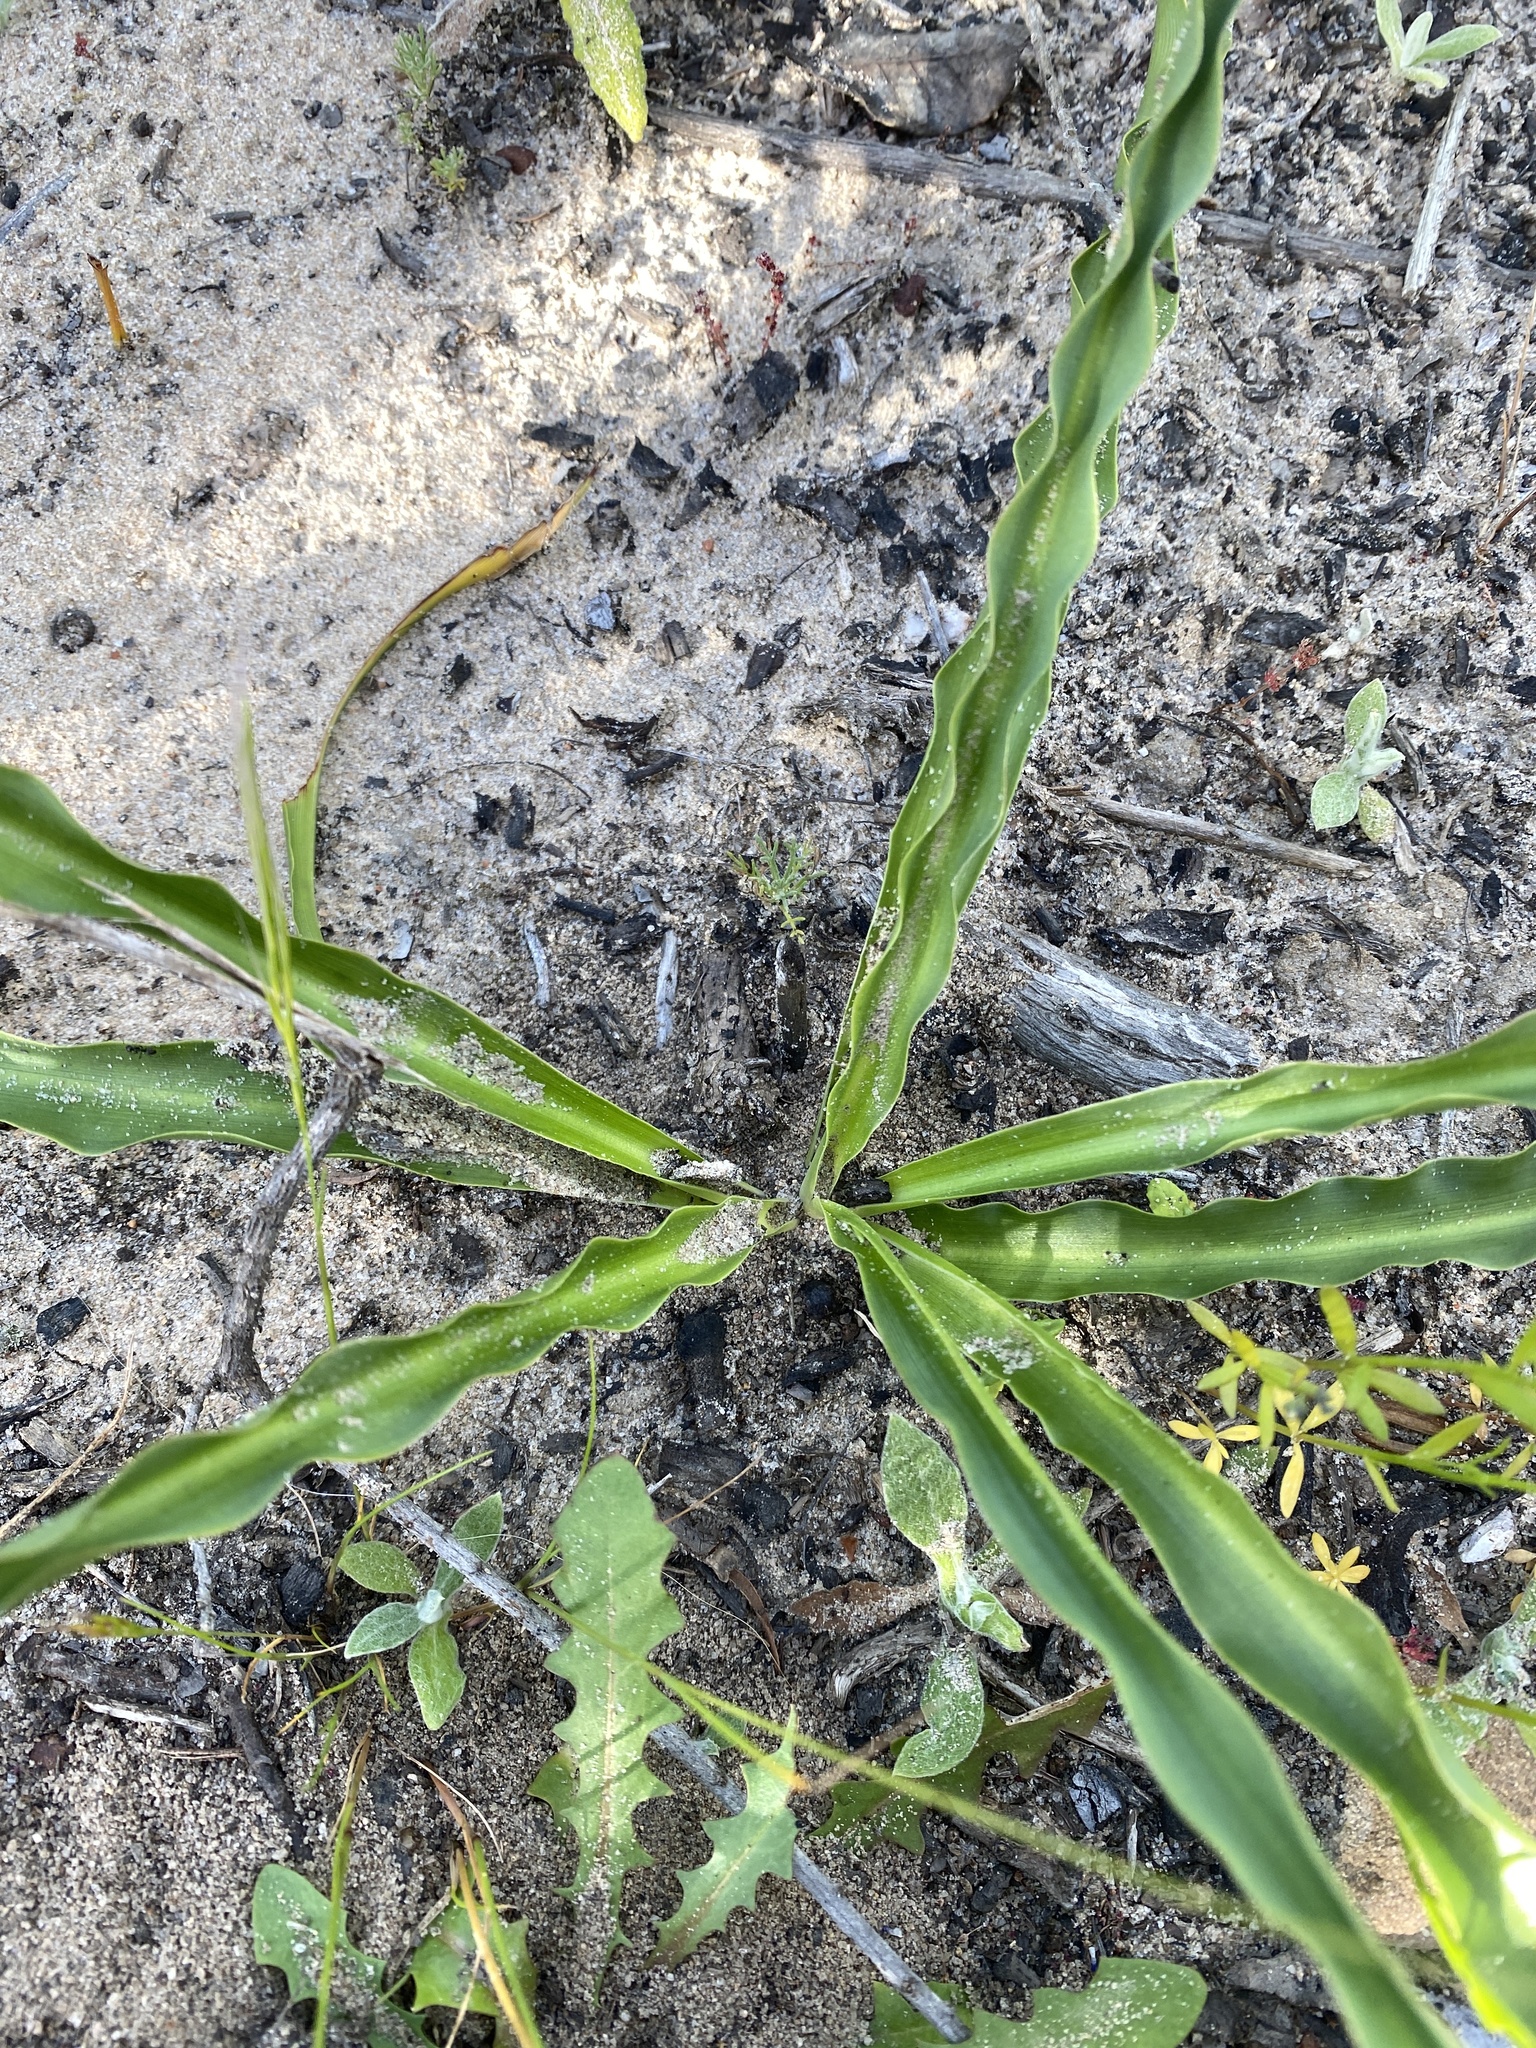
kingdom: Plantae
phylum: Tracheophyta
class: Liliopsida
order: Asparagales
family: Asparagaceae
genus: Chlorogalum
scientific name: Chlorogalum pomeridianum
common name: Amole
